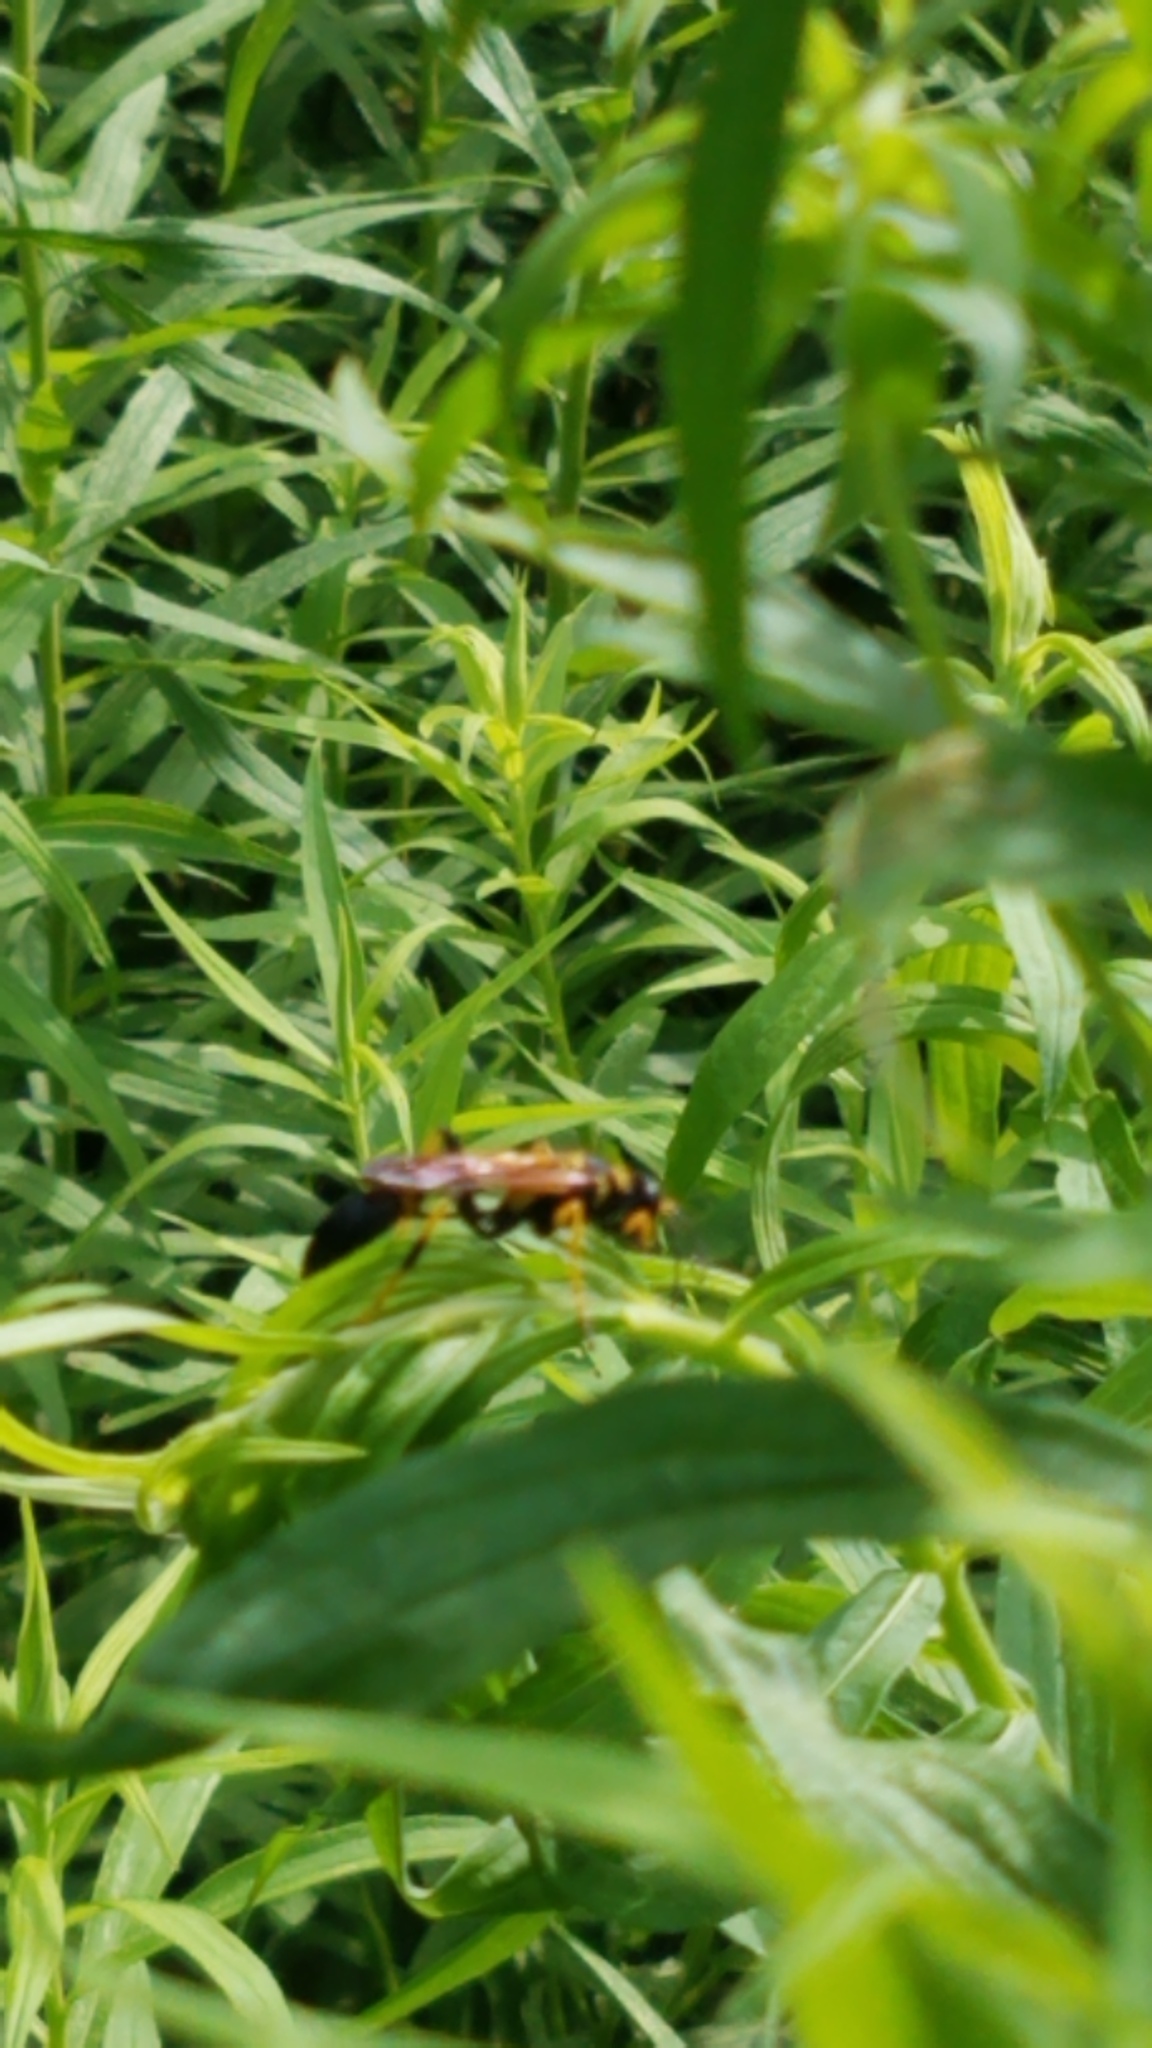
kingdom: Animalia
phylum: Arthropoda
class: Insecta
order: Hymenoptera
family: Sphecidae
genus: Sceliphron
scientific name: Sceliphron caementarium
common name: Mud dauber
